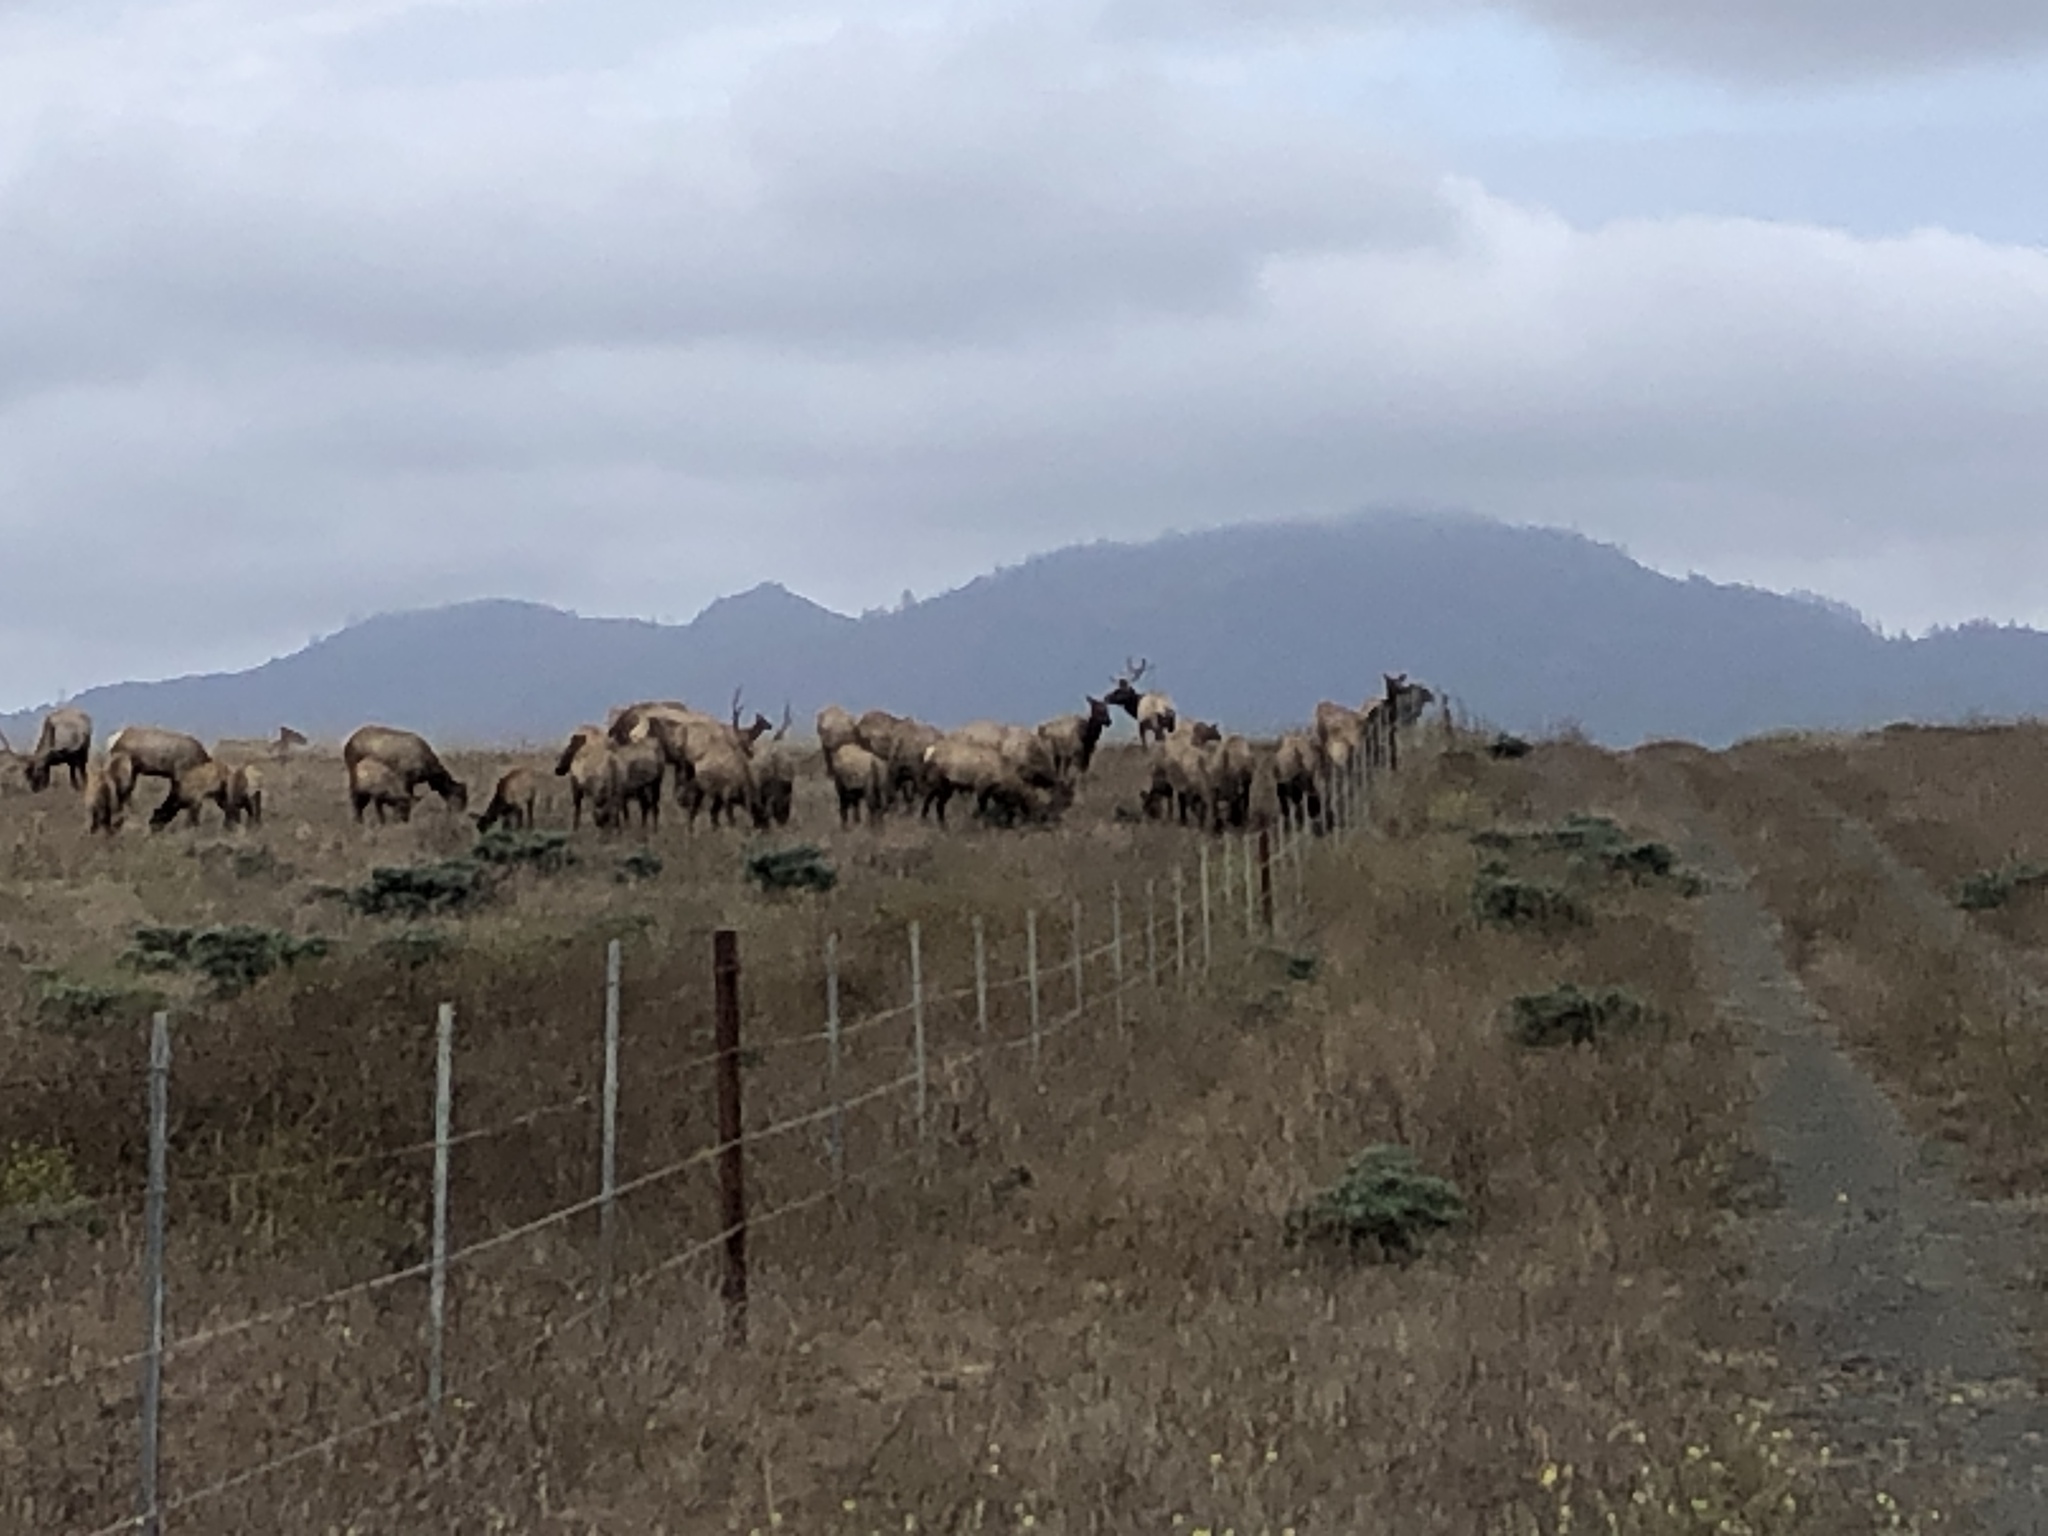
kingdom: Animalia
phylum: Chordata
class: Mammalia
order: Artiodactyla
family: Cervidae
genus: Cervus
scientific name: Cervus elaphus
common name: Red deer
